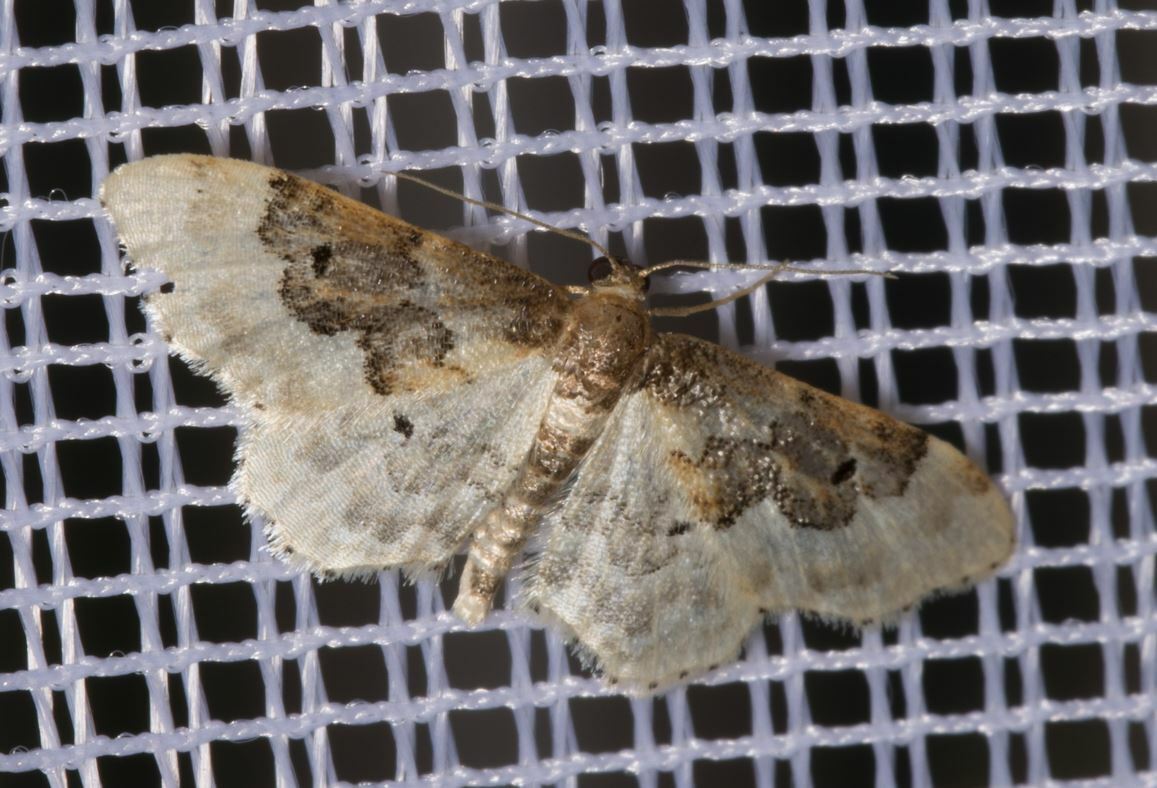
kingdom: Animalia
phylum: Arthropoda
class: Insecta
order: Lepidoptera
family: Geometridae
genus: Idaea
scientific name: Idaea rusticata
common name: Least carpet
